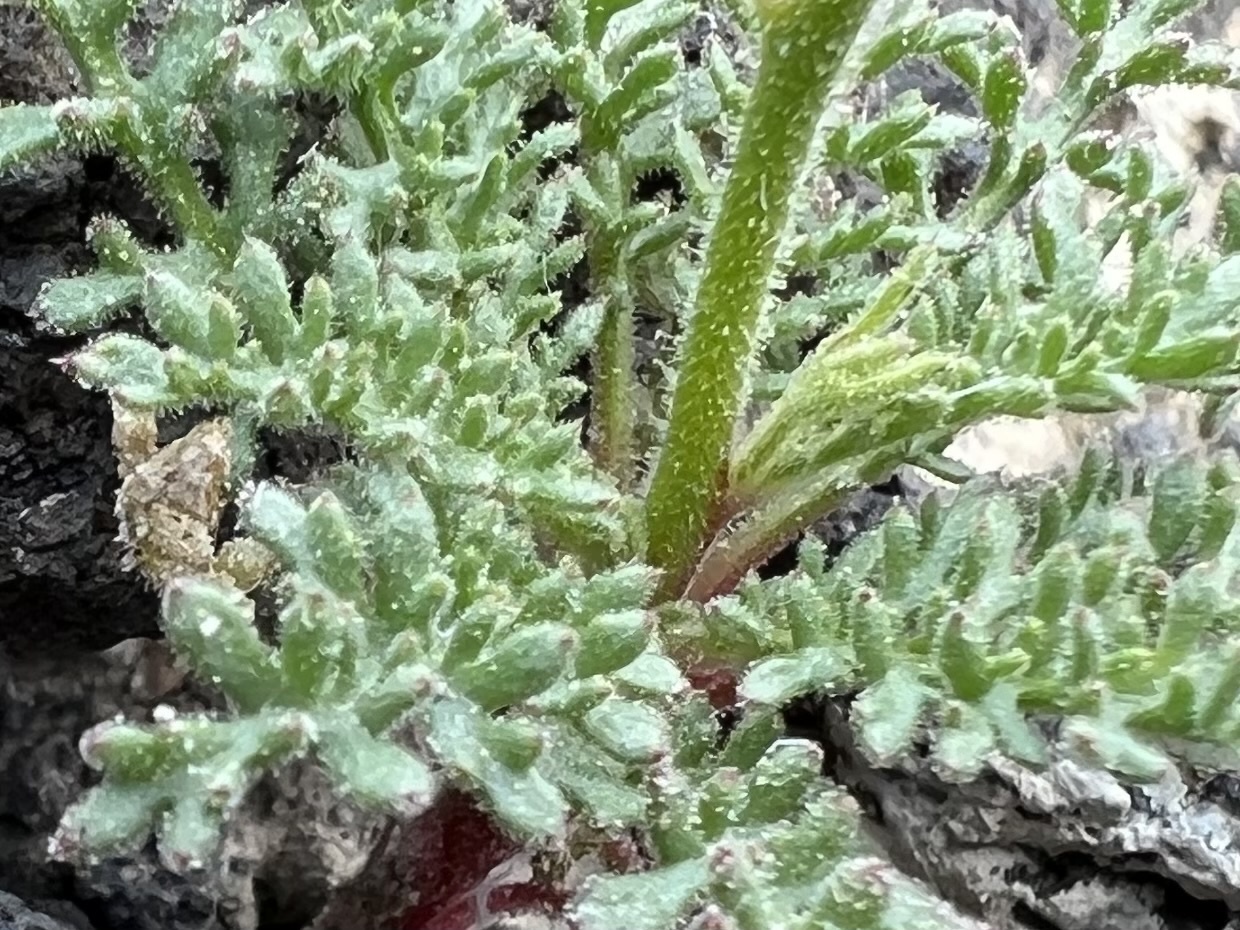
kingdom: Plantae
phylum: Tracheophyta
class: Magnoliopsida
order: Ericales
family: Polemoniaceae
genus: Aliciella
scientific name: Aliciella hutchinsifolia
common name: Desert pale gilia
